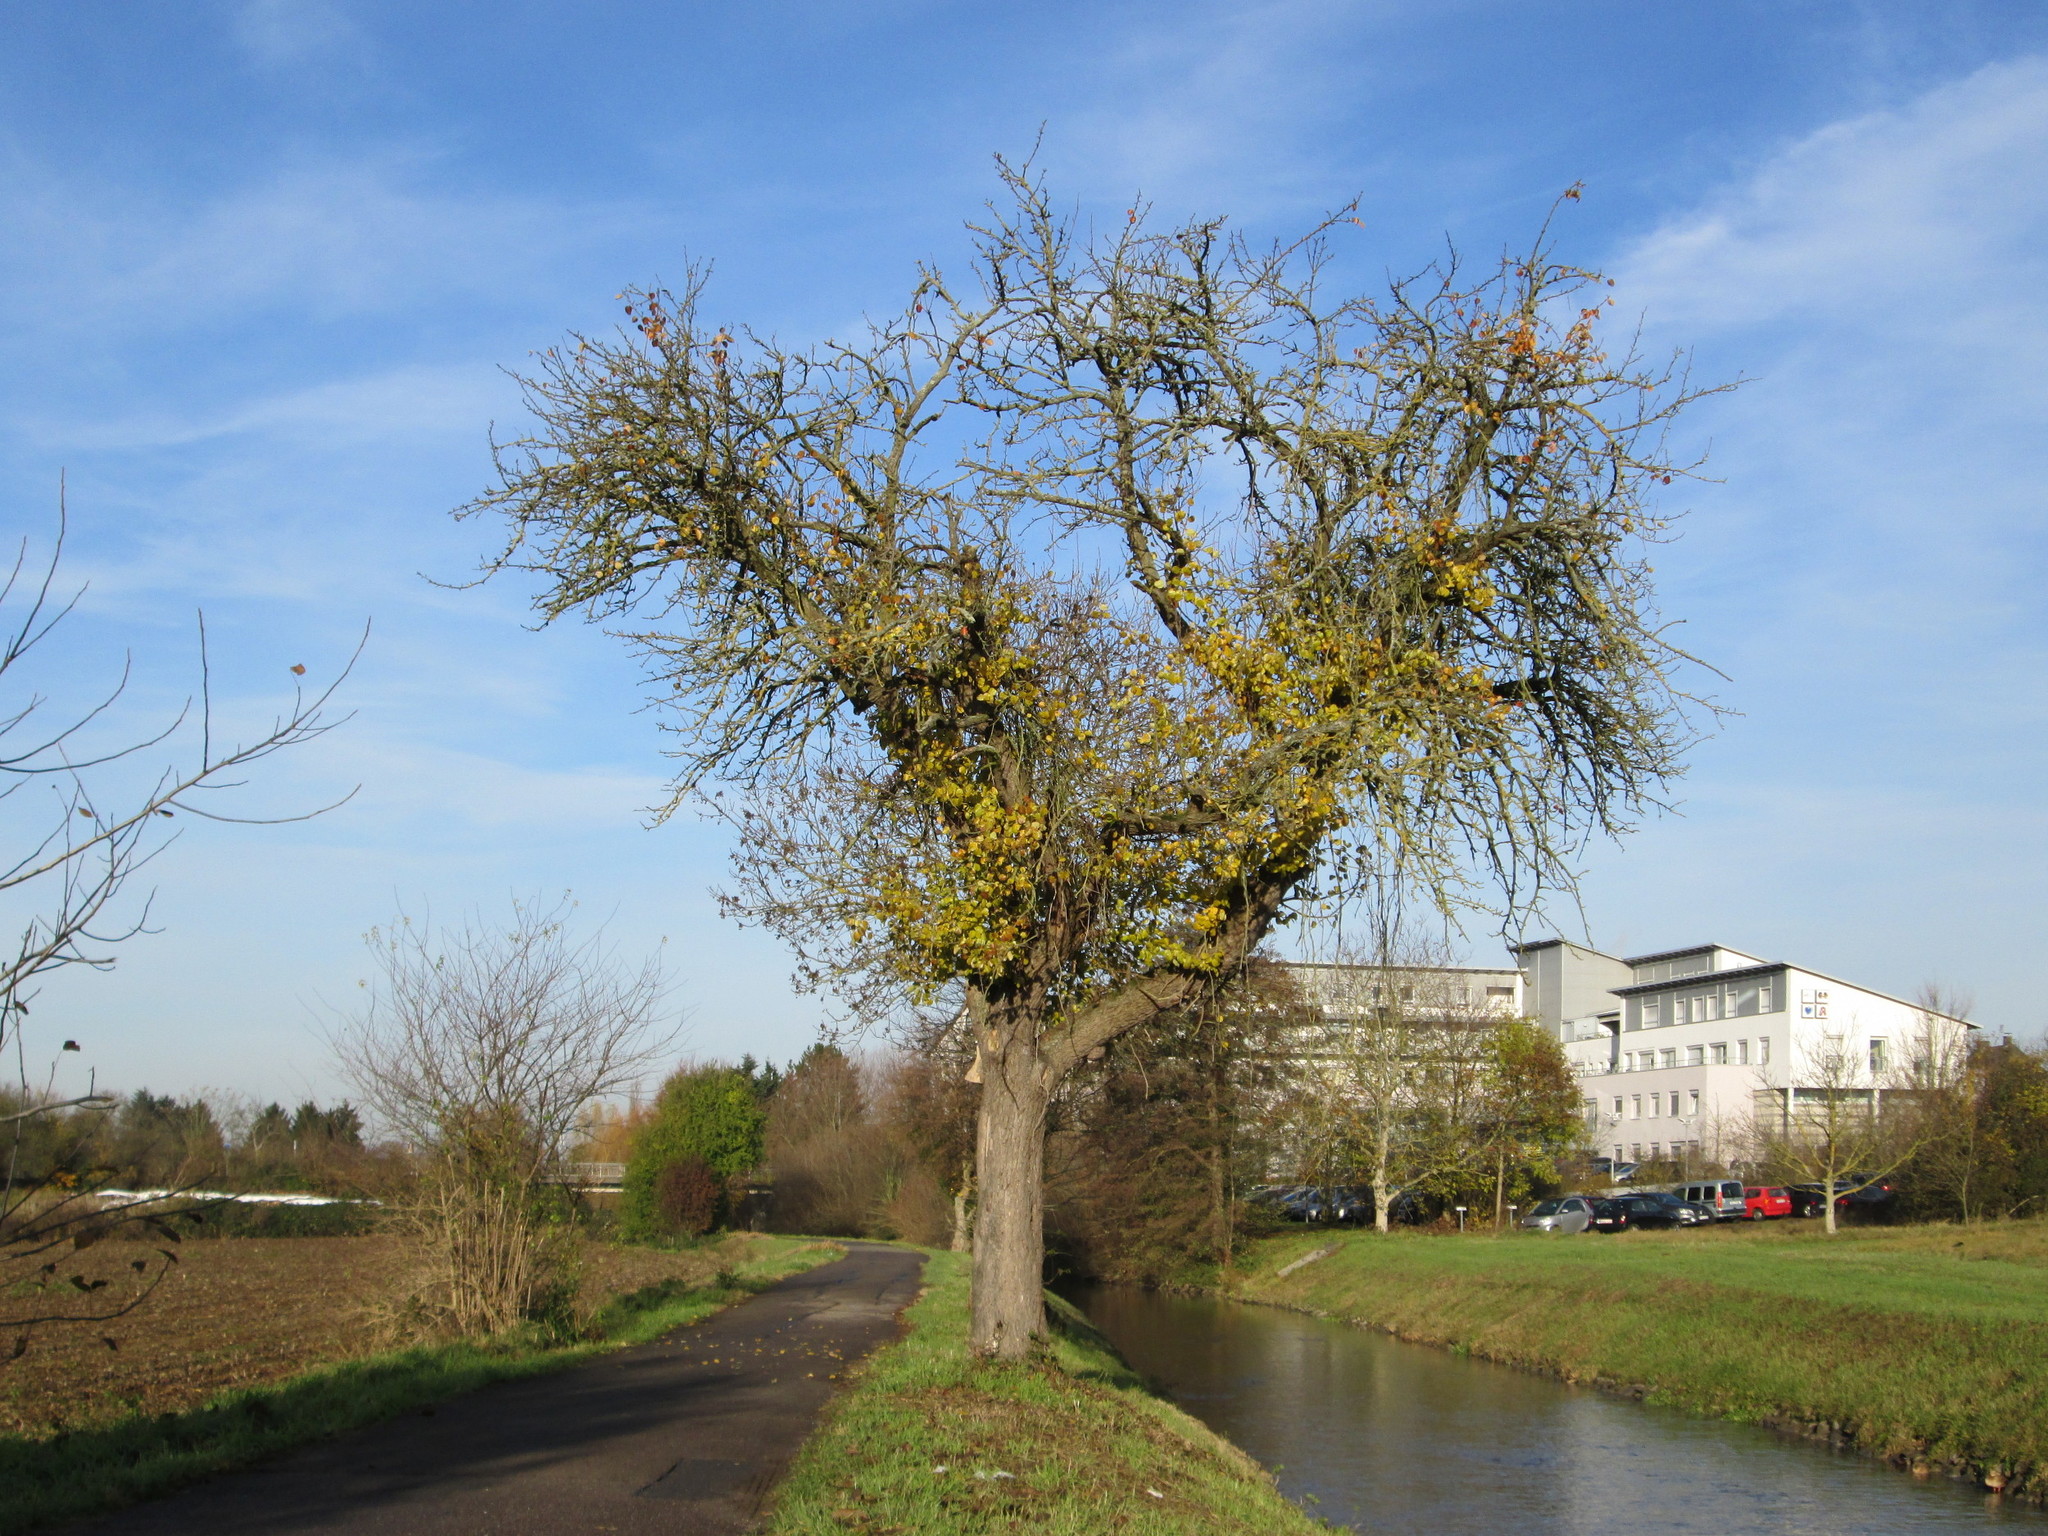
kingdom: Plantae
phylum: Tracheophyta
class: Magnoliopsida
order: Rosales
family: Rosaceae
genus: Pyrus
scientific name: Pyrus communis
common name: Pear
